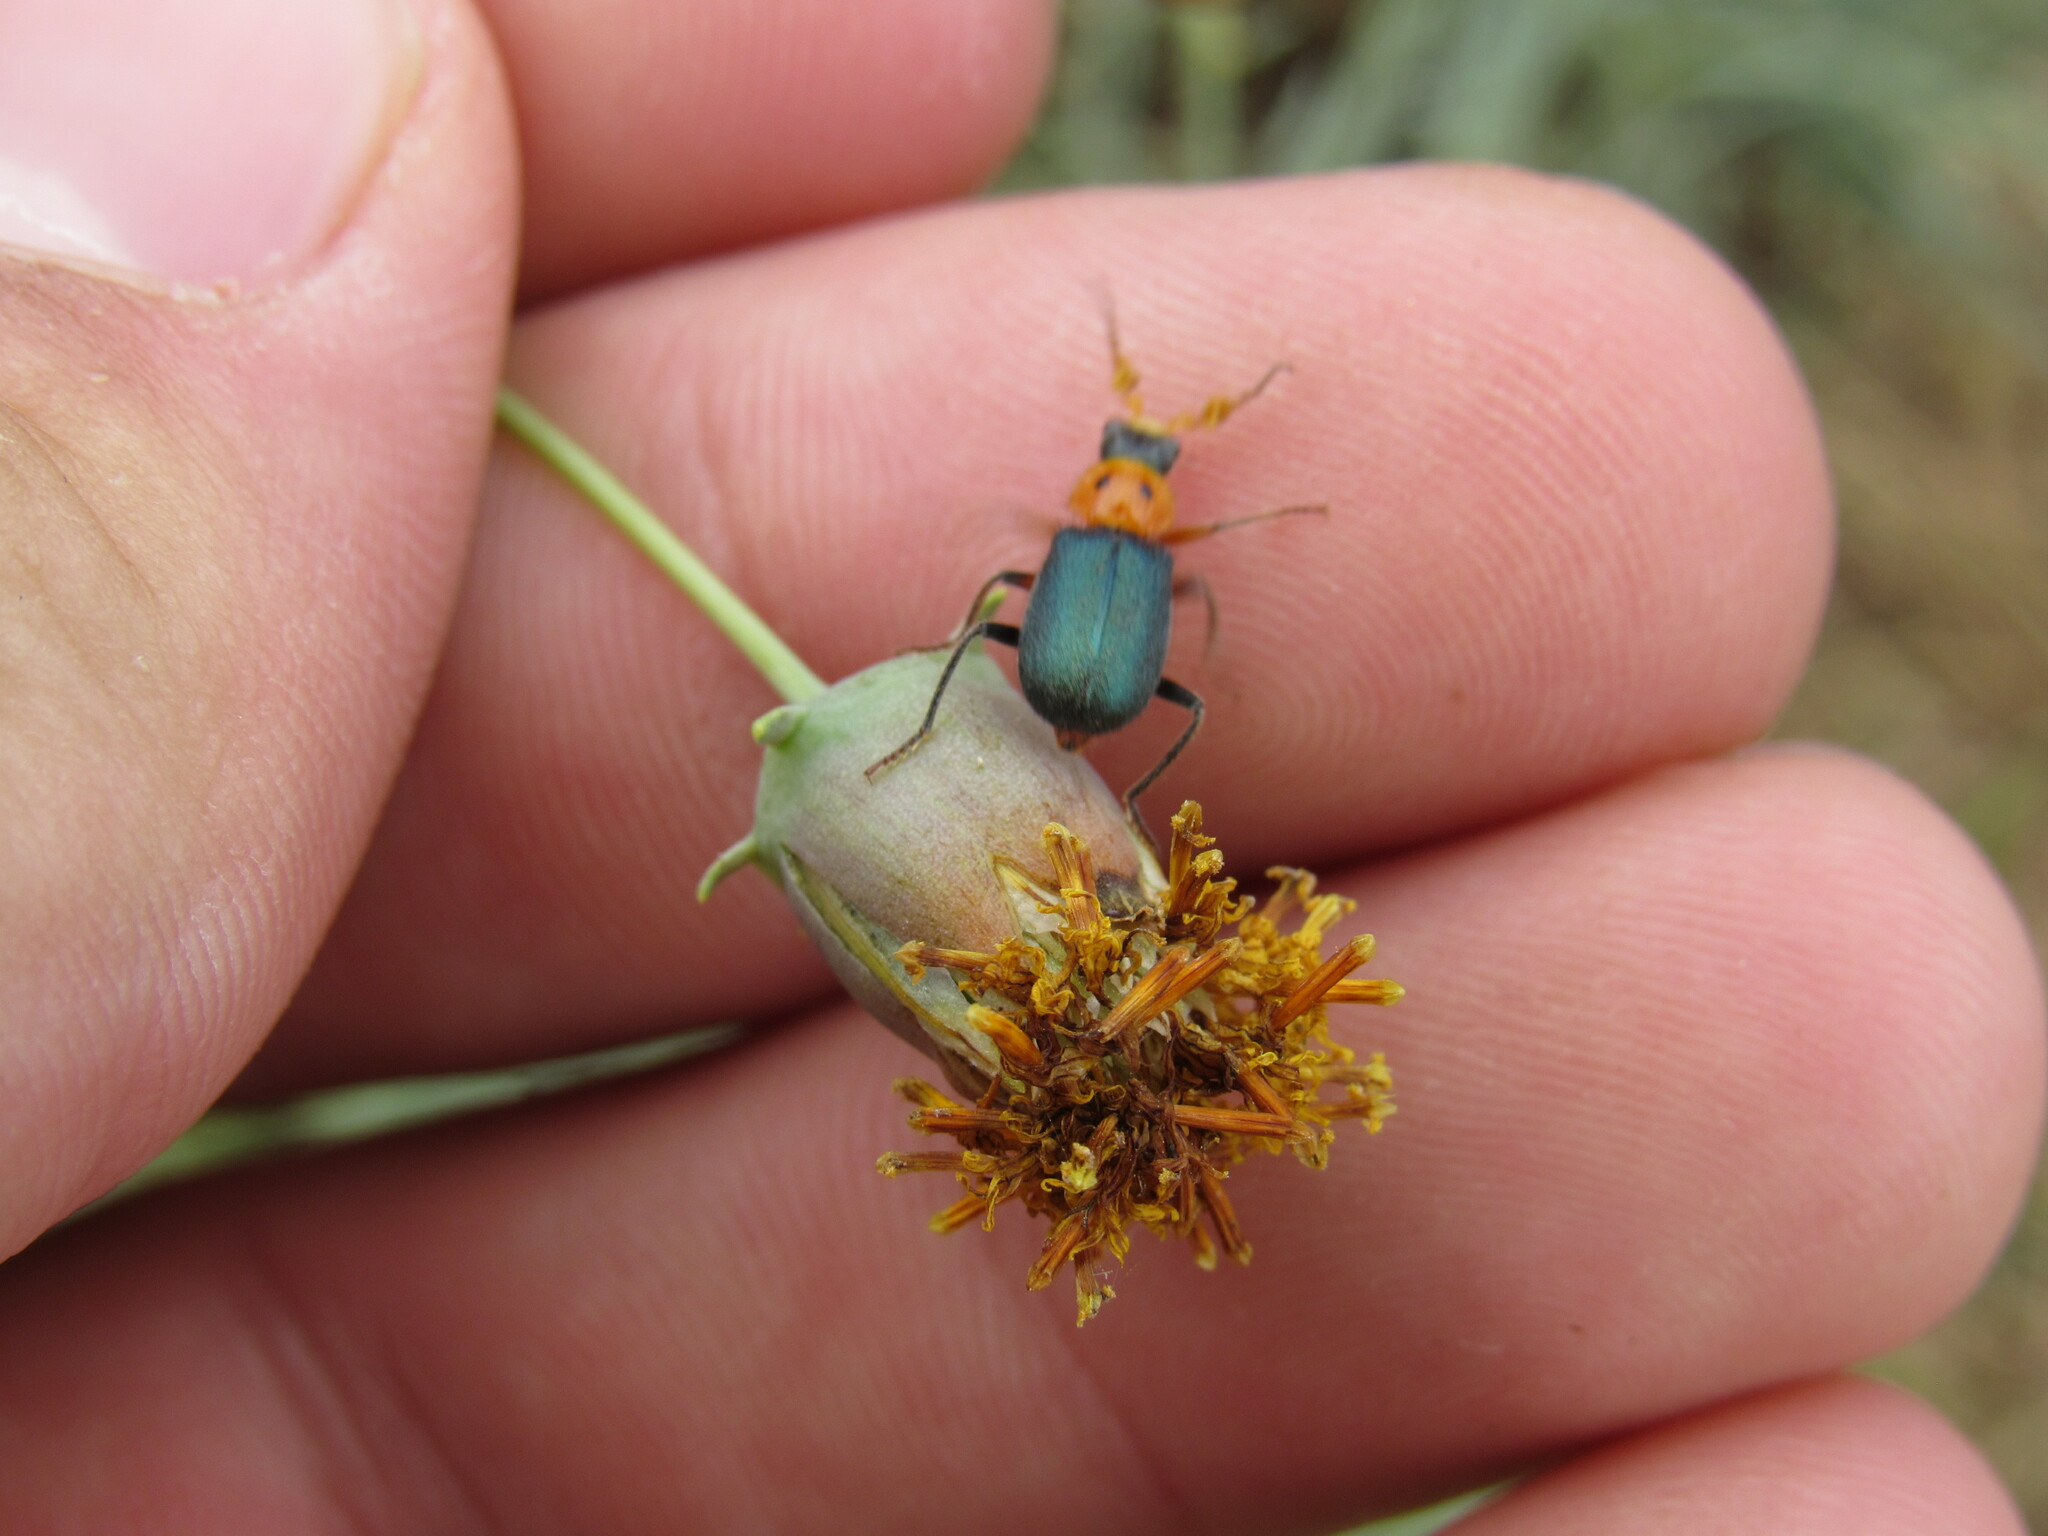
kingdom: Animalia
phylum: Arthropoda
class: Insecta
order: Coleoptera
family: Melyridae
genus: Collops
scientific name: Collops bipunctatus
